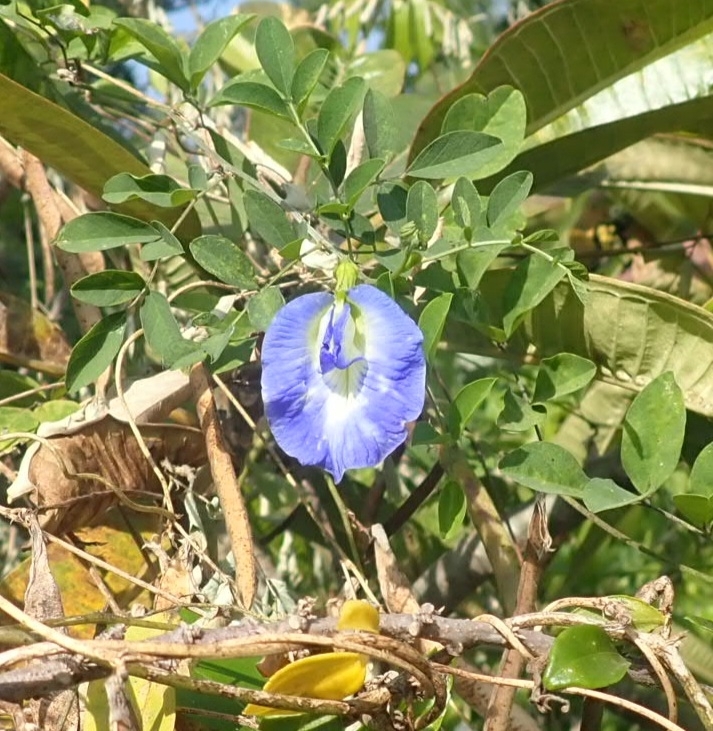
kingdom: Plantae
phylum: Tracheophyta
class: Magnoliopsida
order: Fabales
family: Fabaceae
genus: Clitoria
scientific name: Clitoria ternatea
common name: Asian pigeonwings
